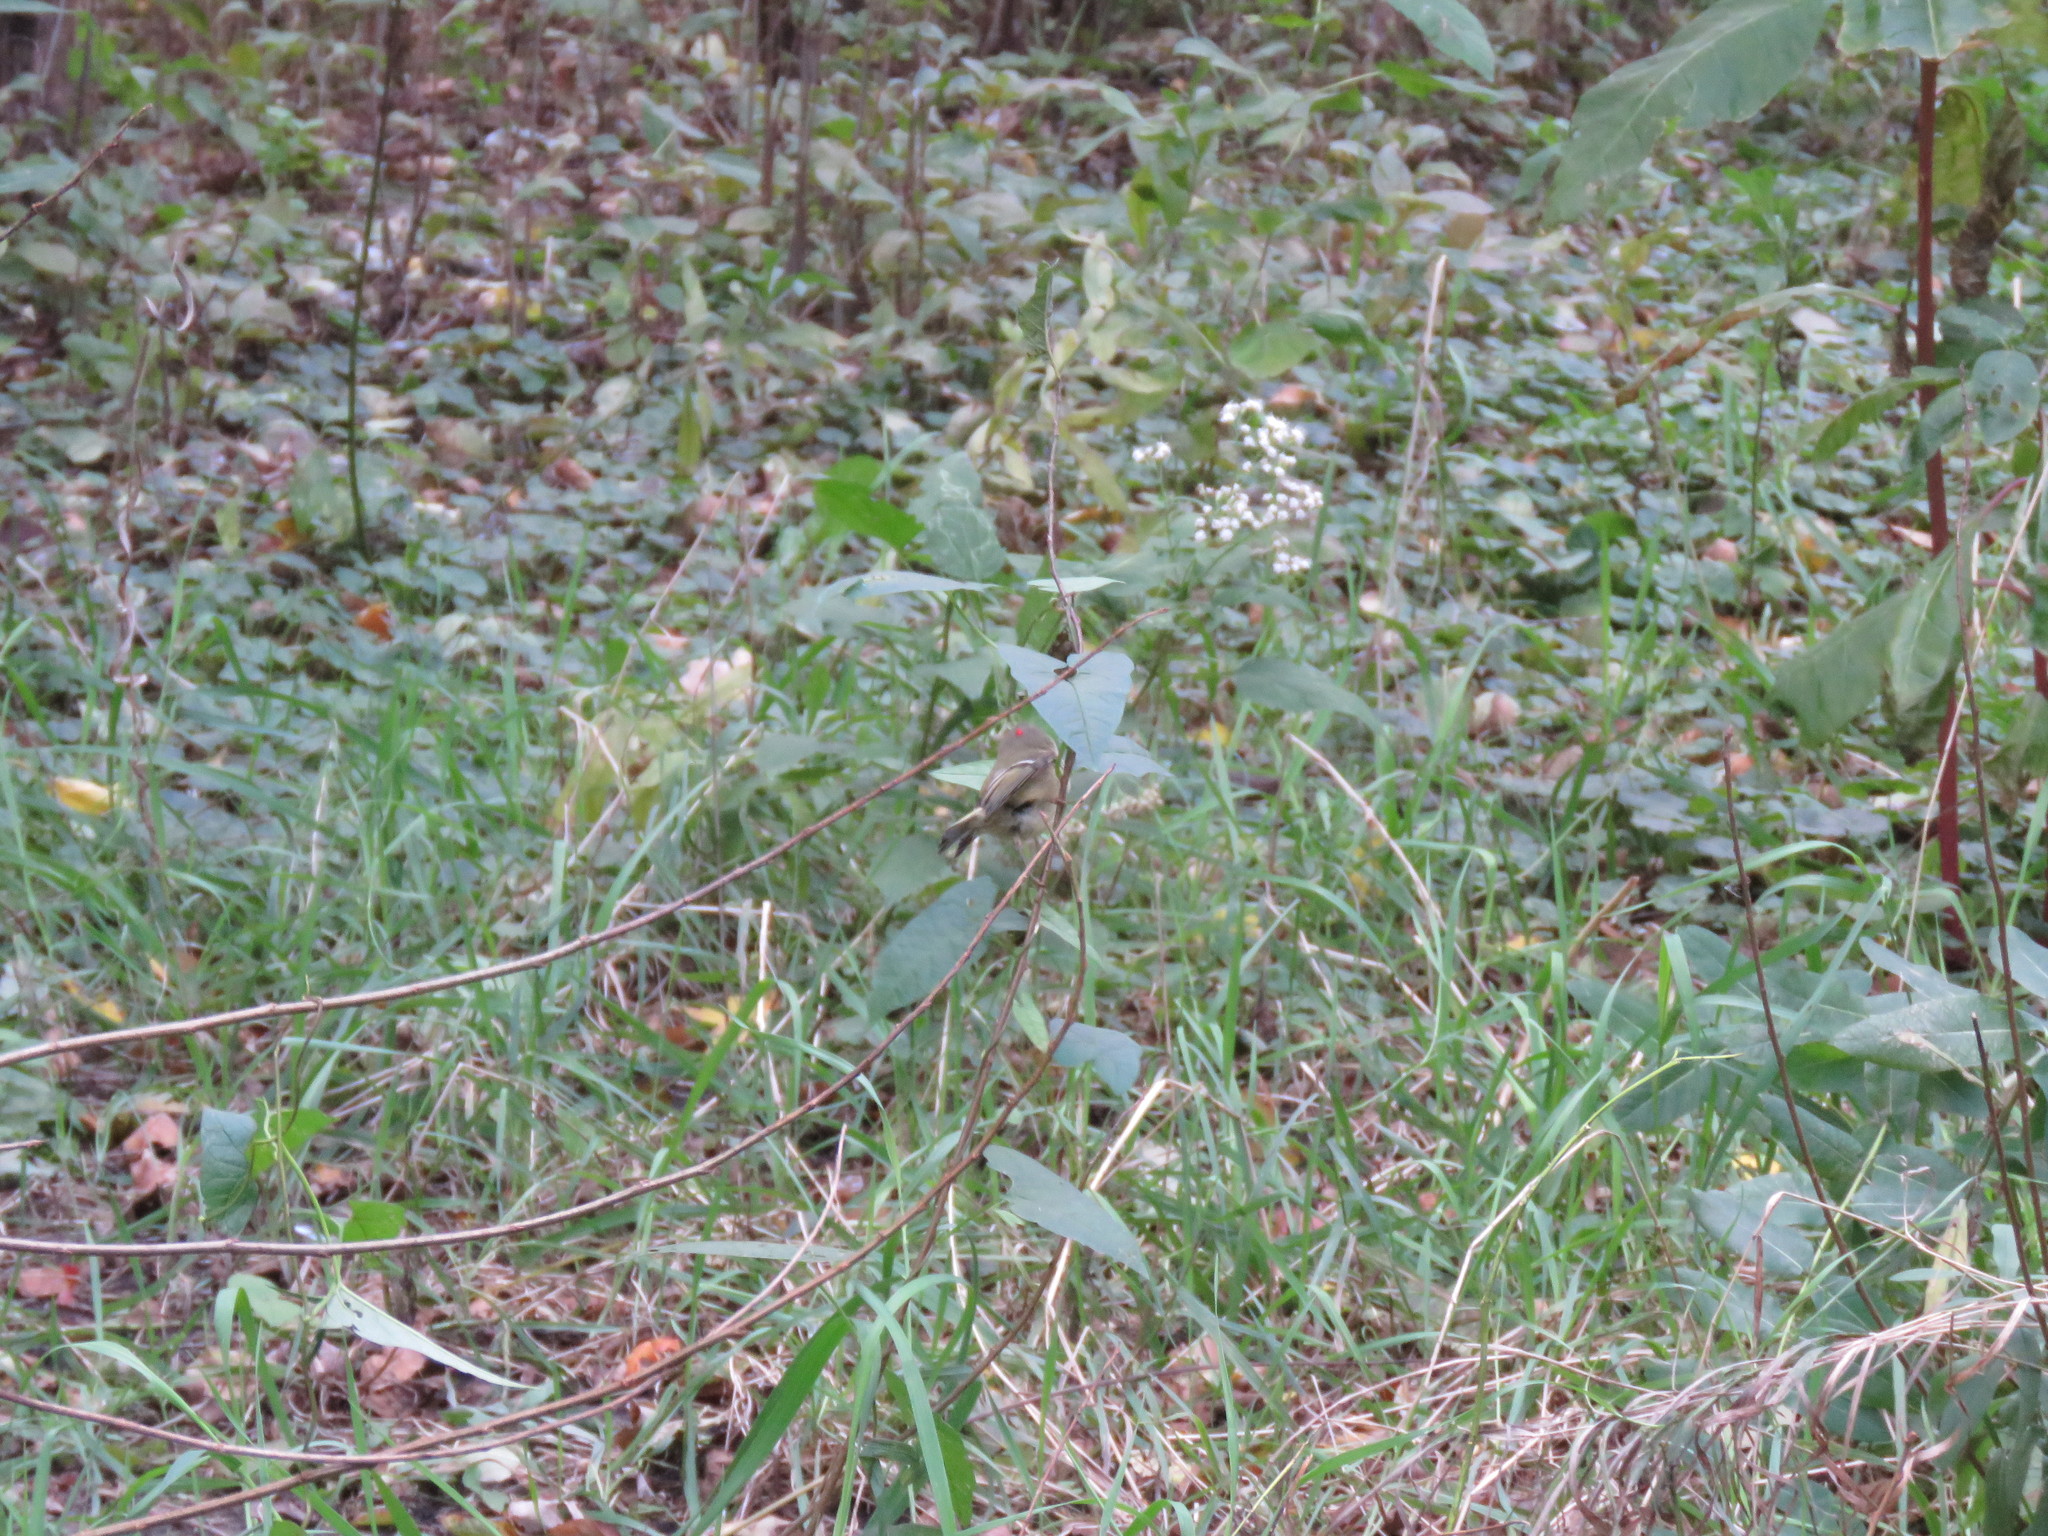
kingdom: Animalia
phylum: Chordata
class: Aves
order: Passeriformes
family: Regulidae
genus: Regulus
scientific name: Regulus calendula
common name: Ruby-crowned kinglet
